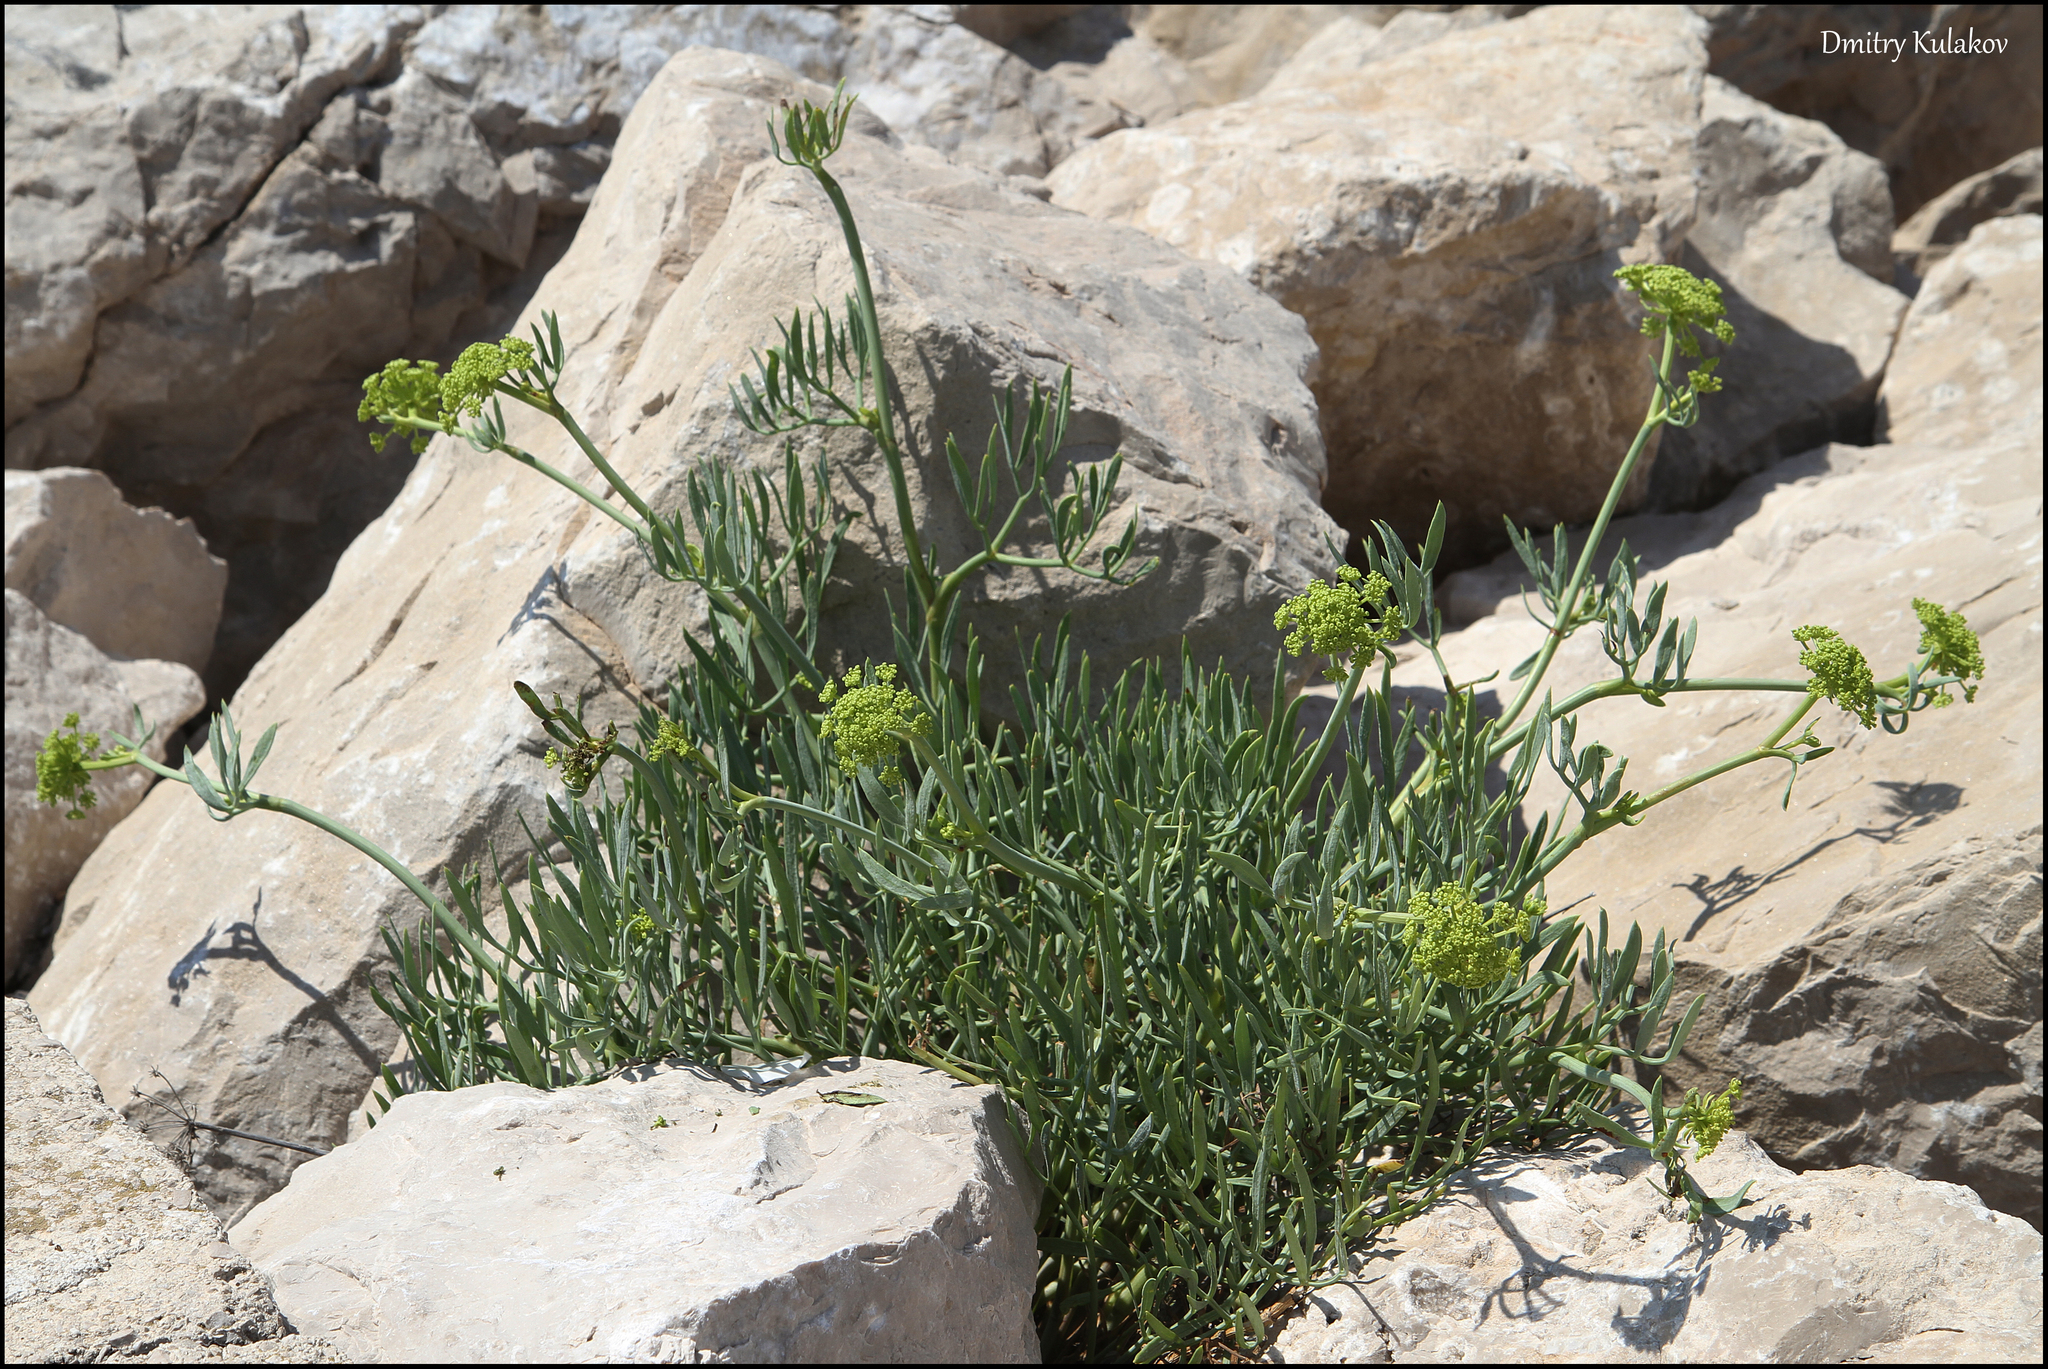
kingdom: Plantae
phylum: Tracheophyta
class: Magnoliopsida
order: Apiales
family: Apiaceae
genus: Crithmum
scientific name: Crithmum maritimum
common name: Rock samphire
